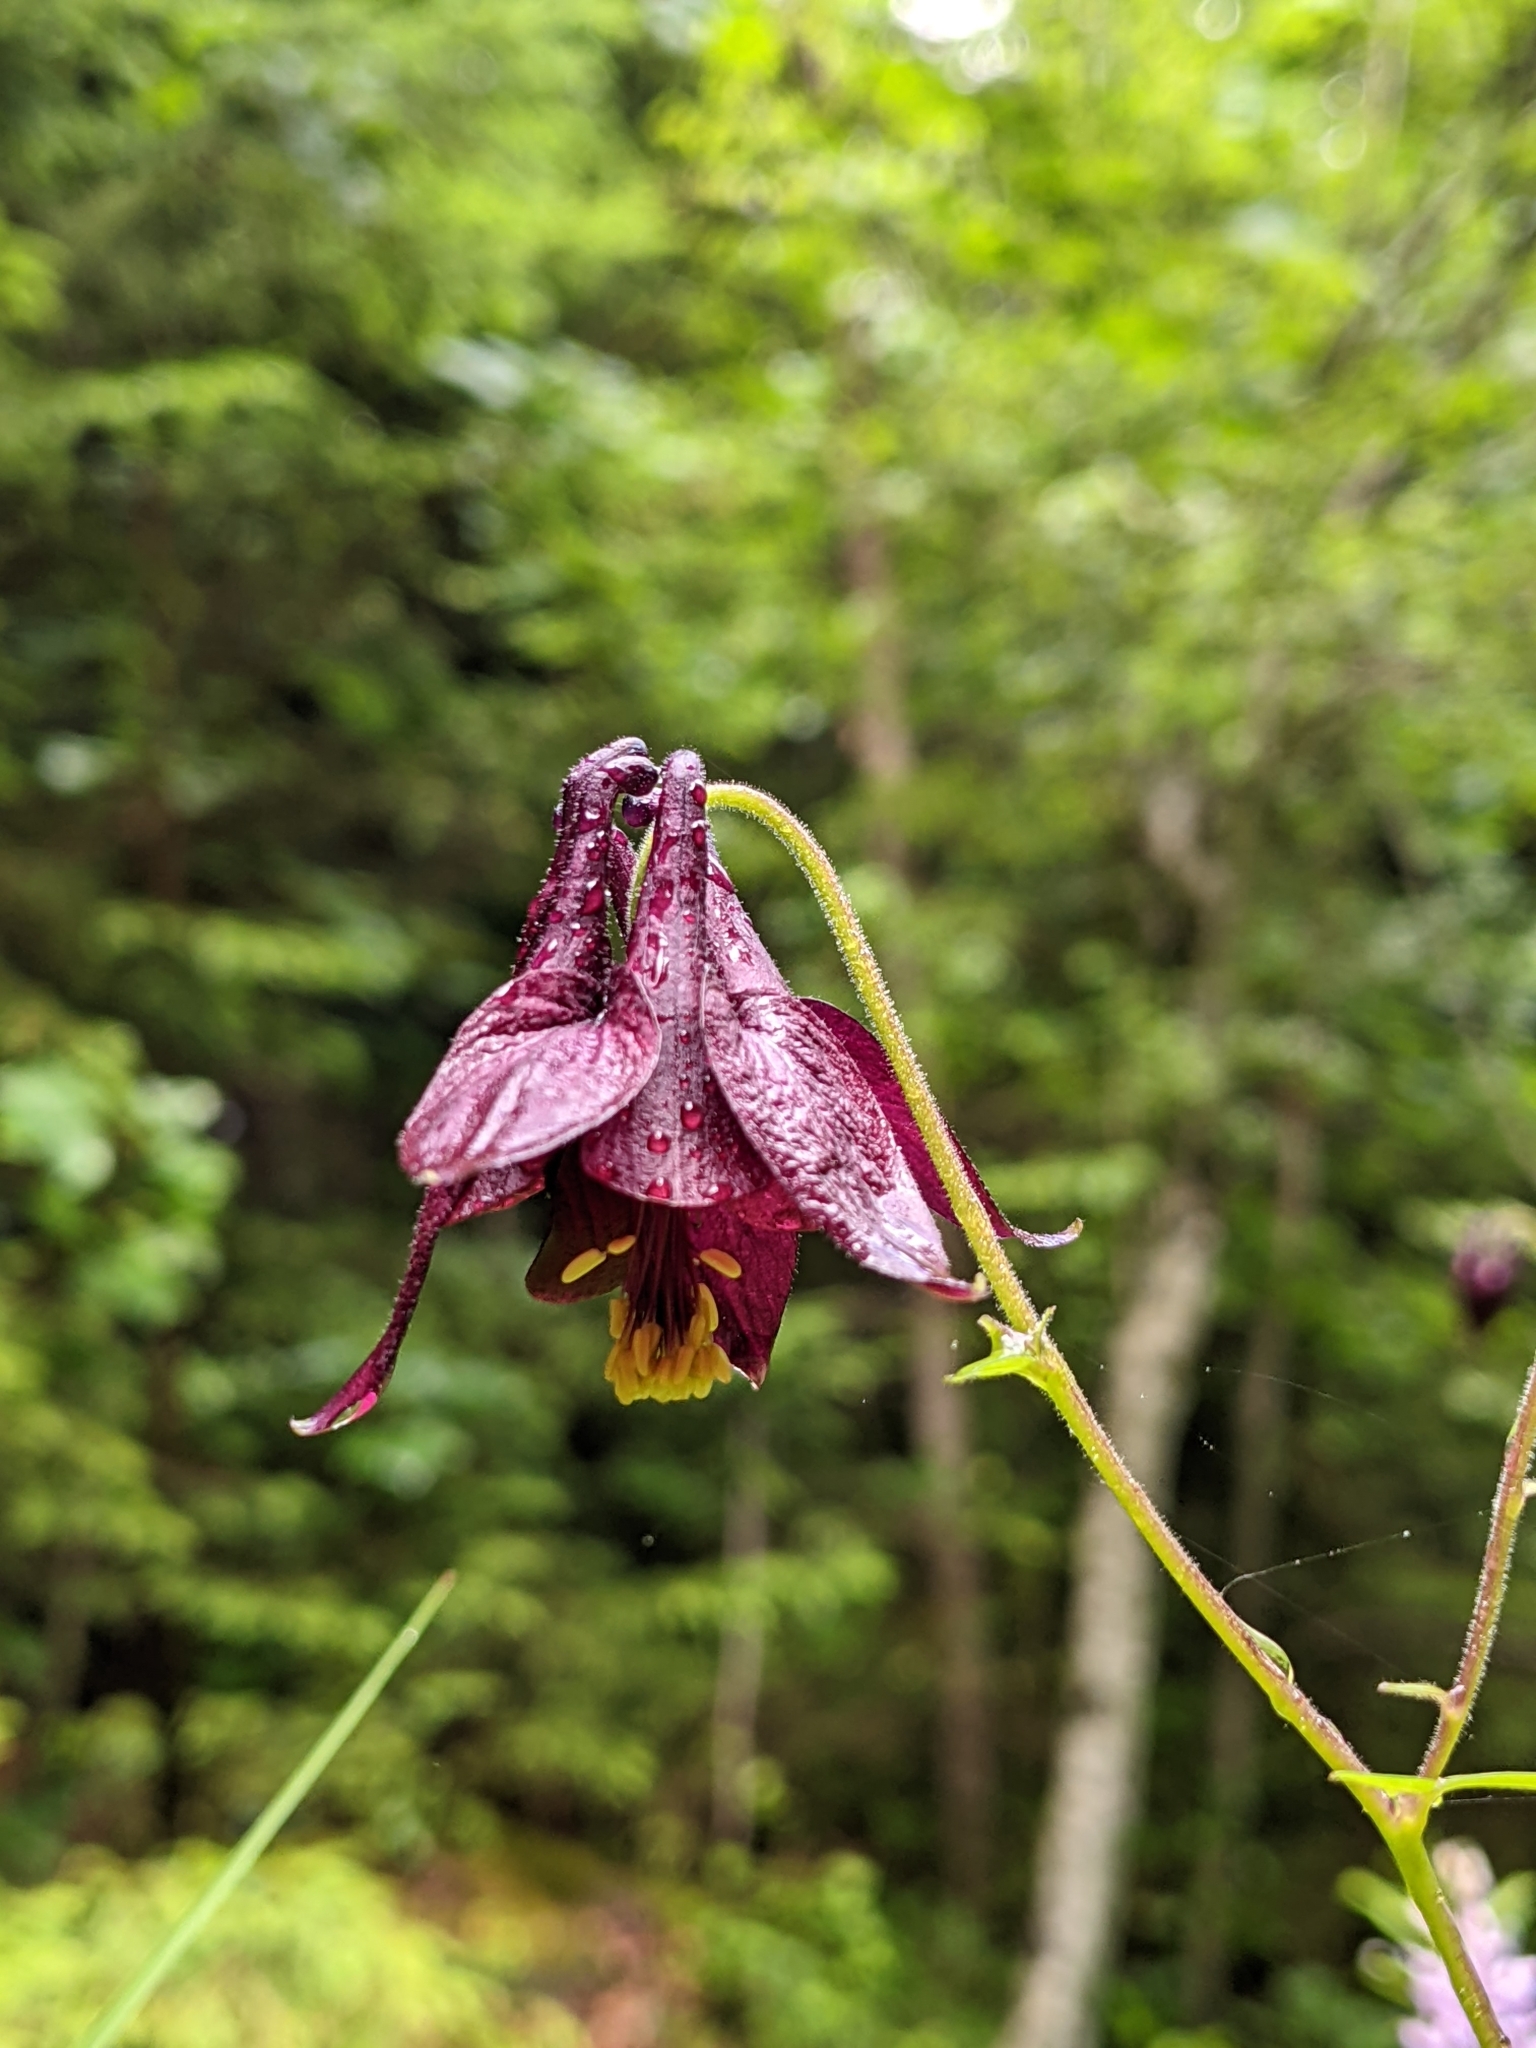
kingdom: Plantae
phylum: Tracheophyta
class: Magnoliopsida
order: Ranunculales
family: Ranunculaceae
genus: Aquilegia
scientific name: Aquilegia atrata
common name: Dark columbine
